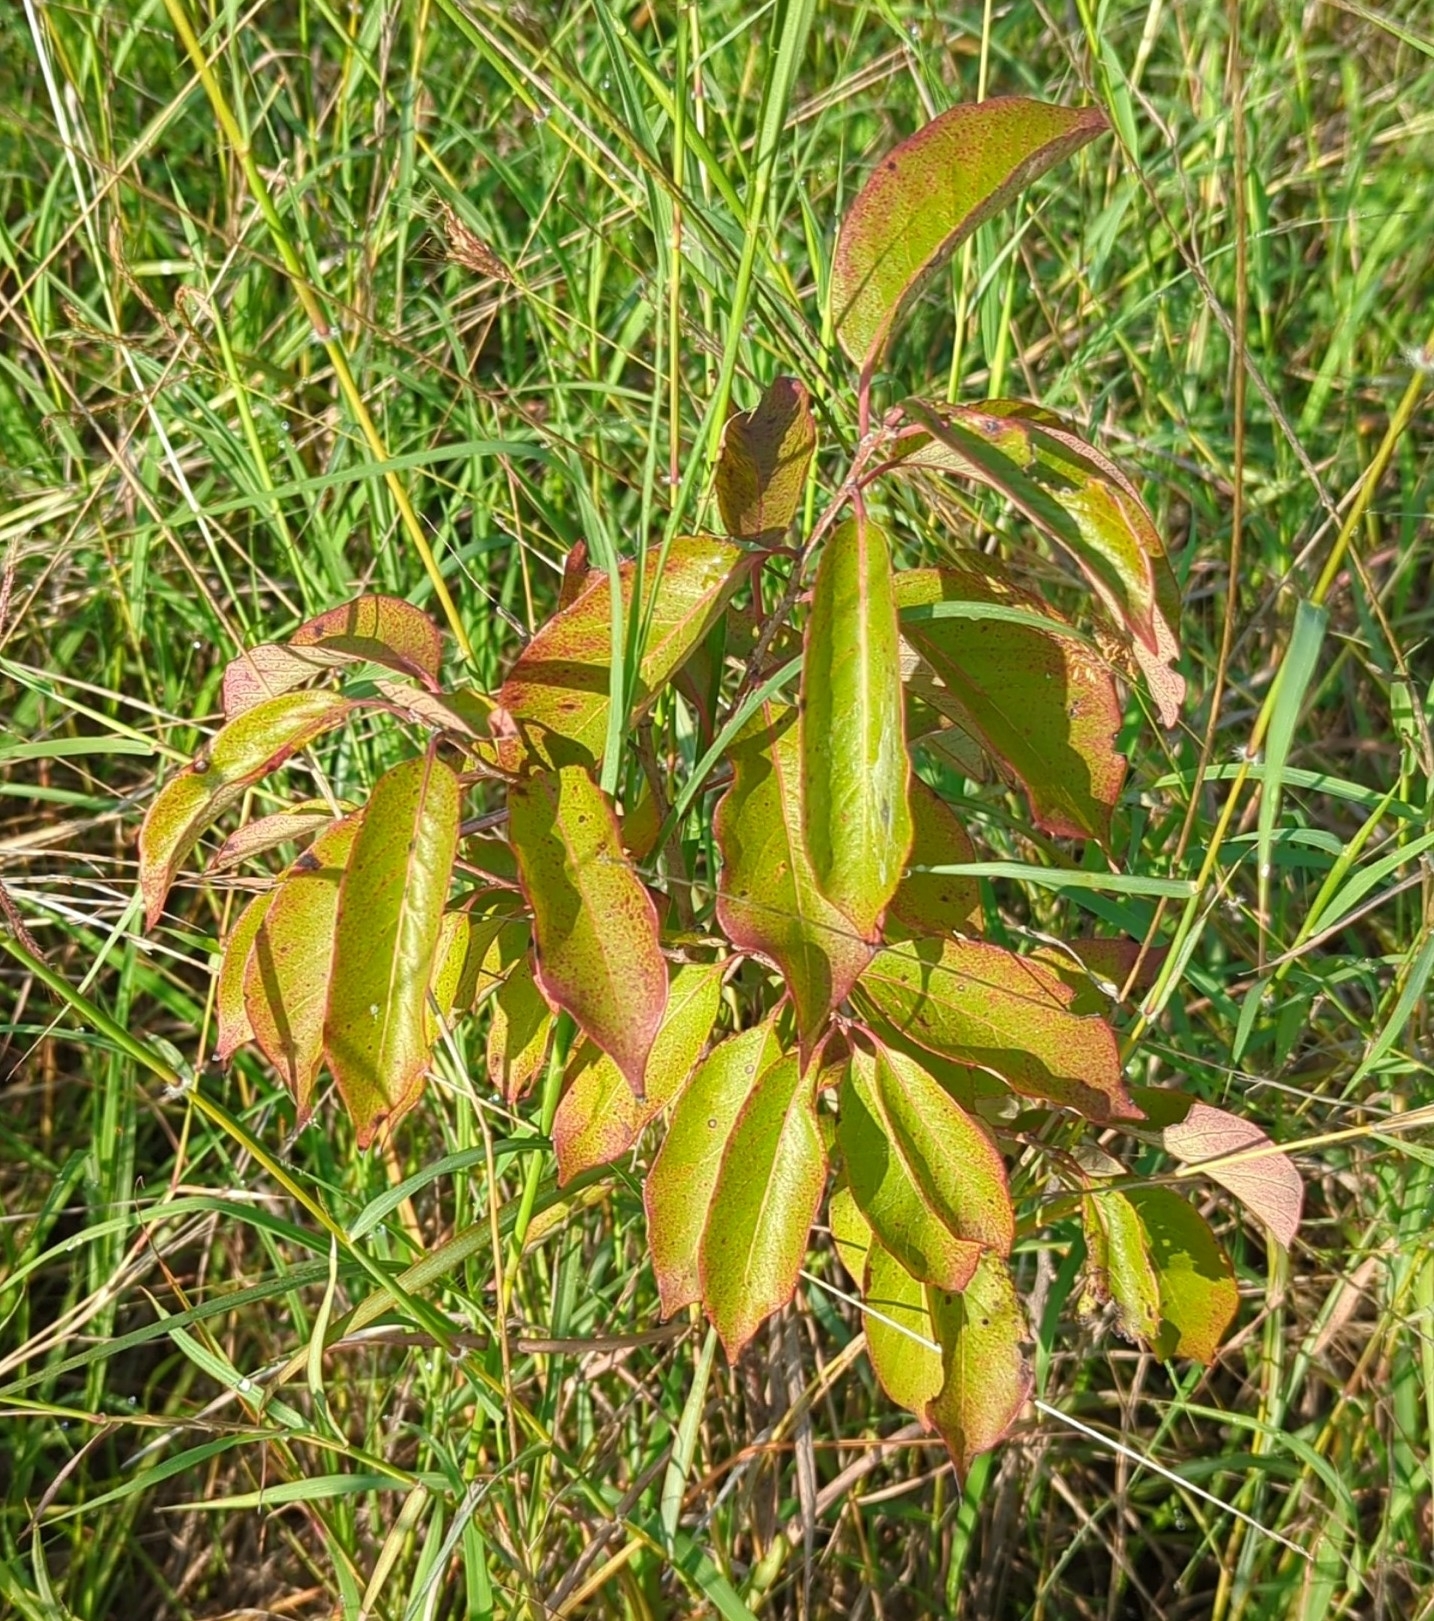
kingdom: Plantae
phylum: Tracheophyta
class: Magnoliopsida
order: Ericales
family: Ebenaceae
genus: Diospyros
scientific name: Diospyros virginiana
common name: Persimmon
